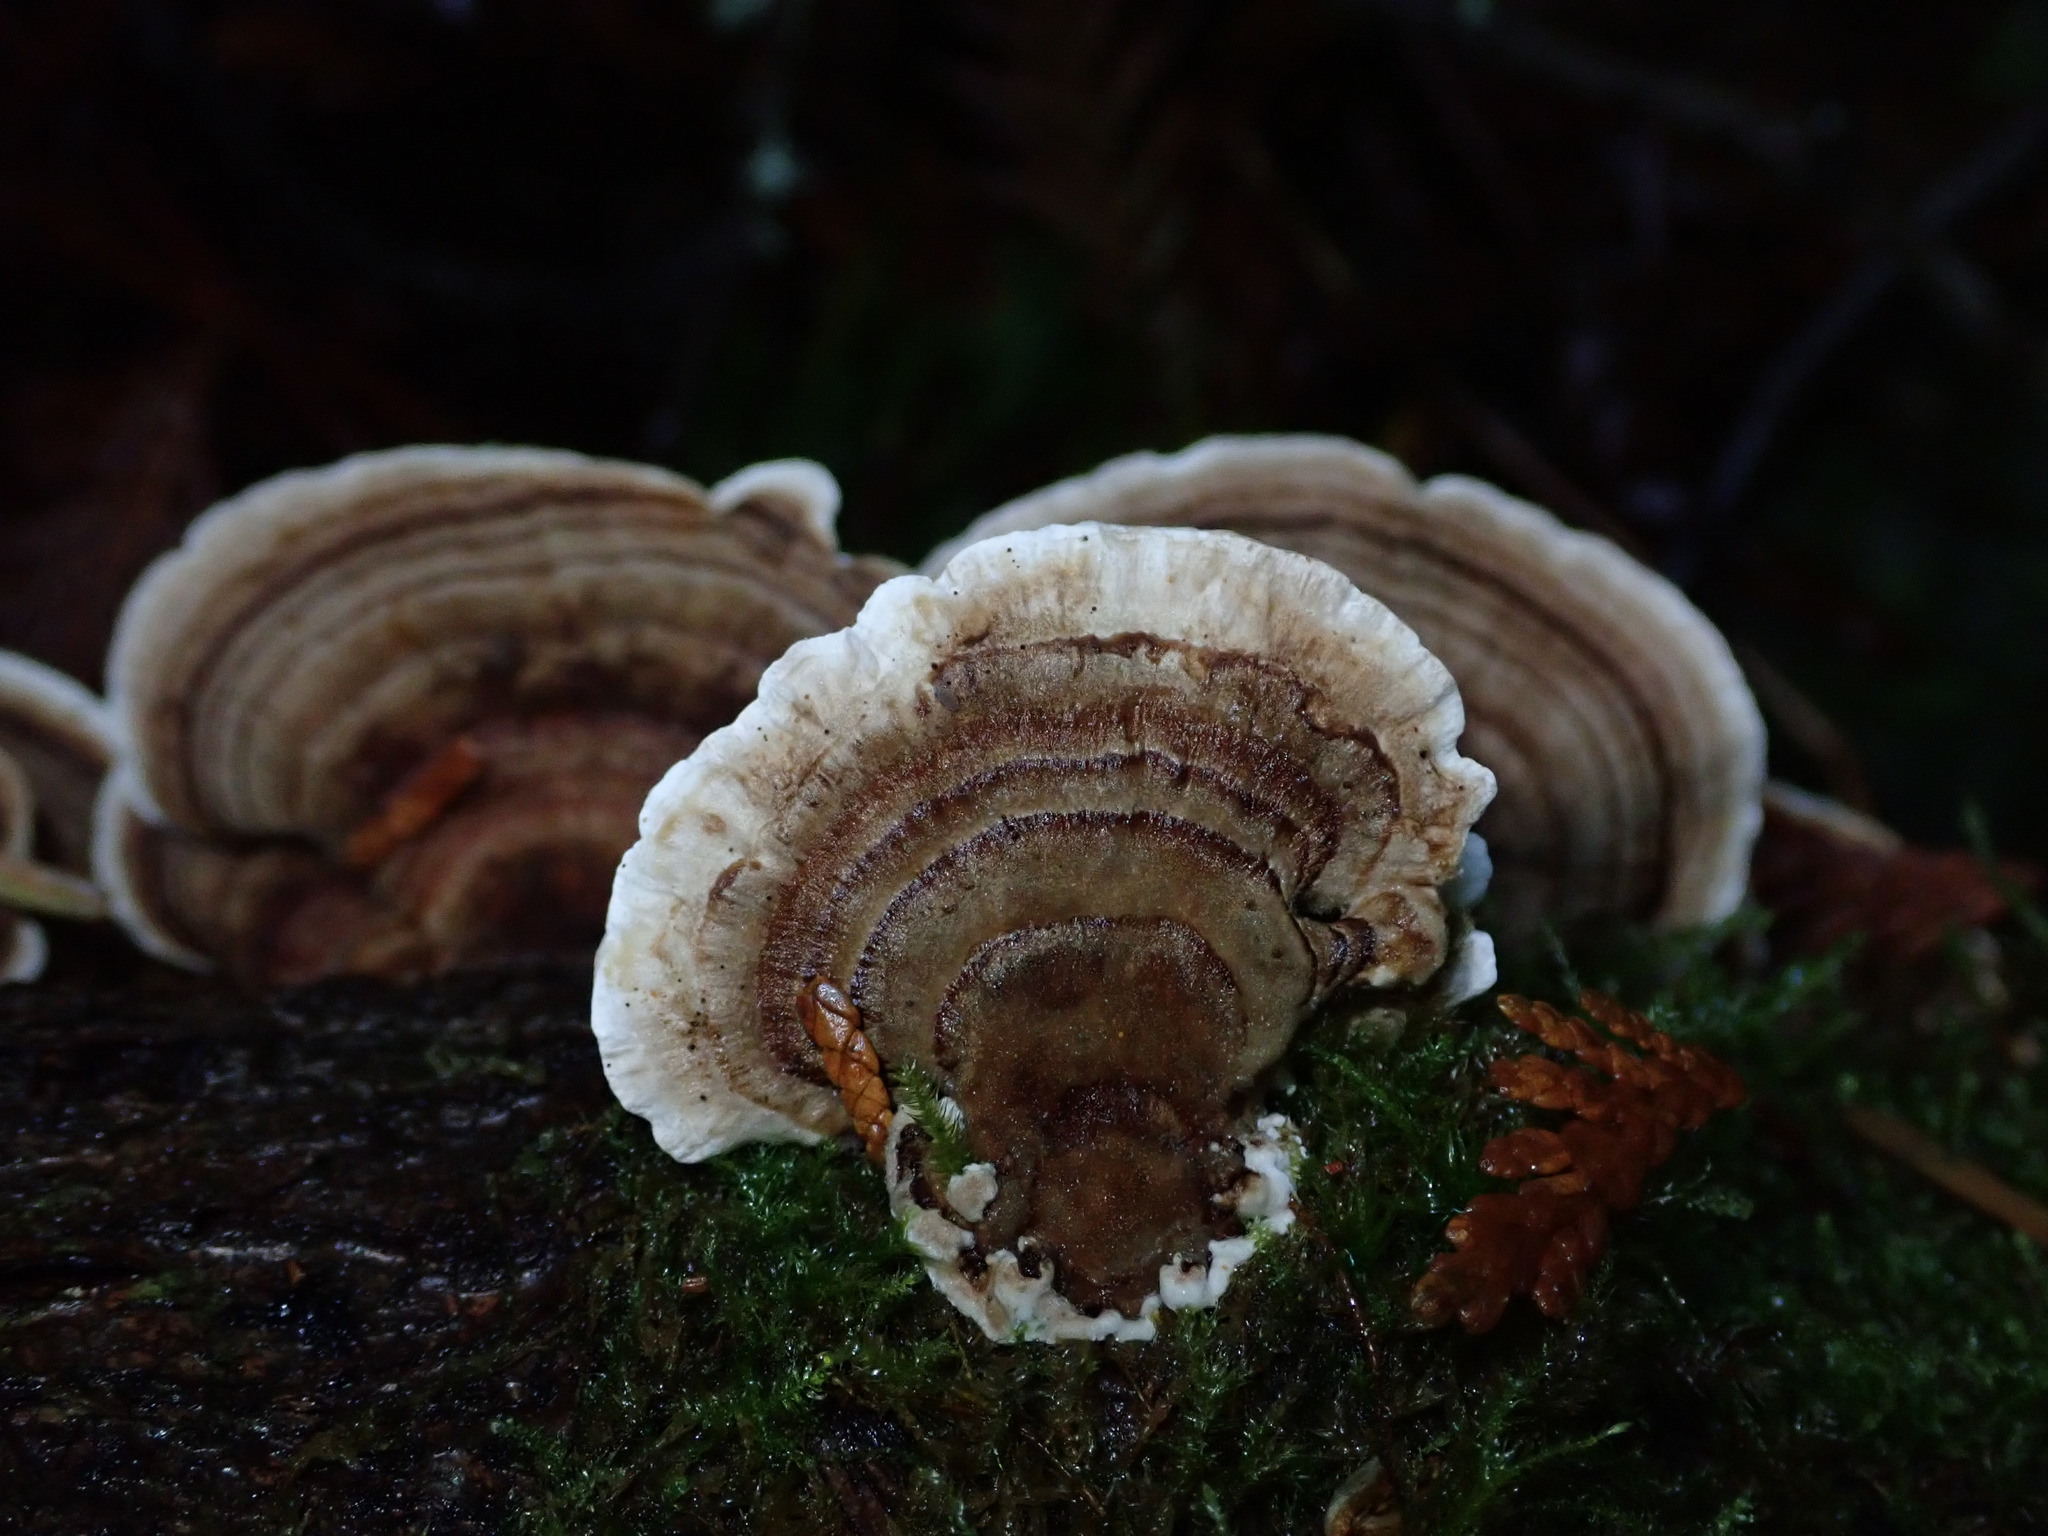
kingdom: Fungi
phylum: Basidiomycota
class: Agaricomycetes
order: Polyporales
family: Polyporaceae
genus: Trametes
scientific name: Trametes versicolor
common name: Turkeytail
